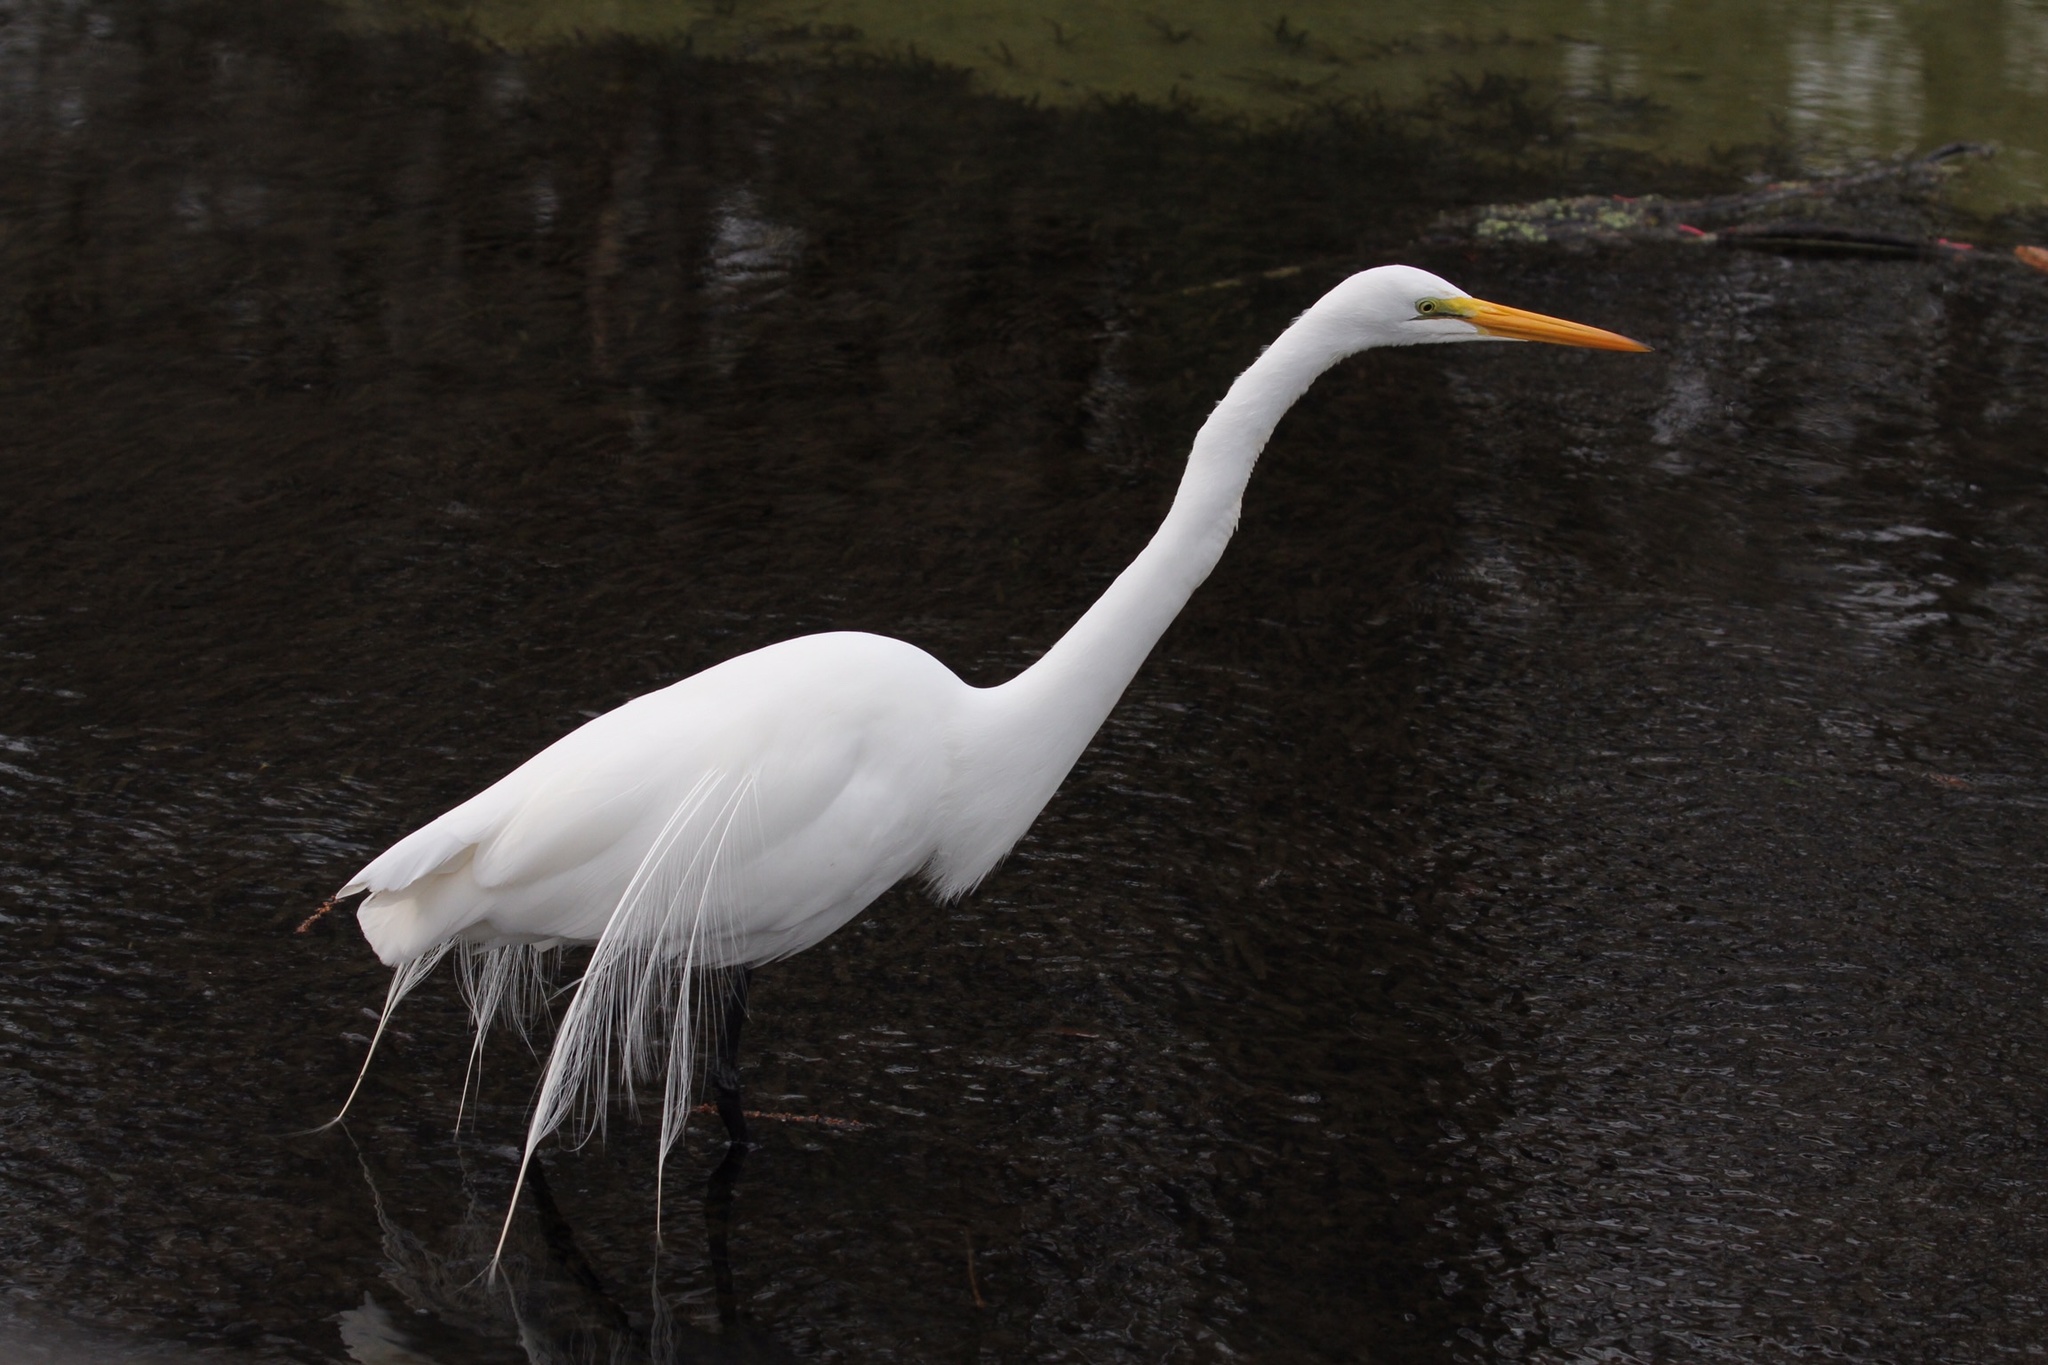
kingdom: Animalia
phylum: Chordata
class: Aves
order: Pelecaniformes
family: Ardeidae
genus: Ardea
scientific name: Ardea alba
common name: Great egret
